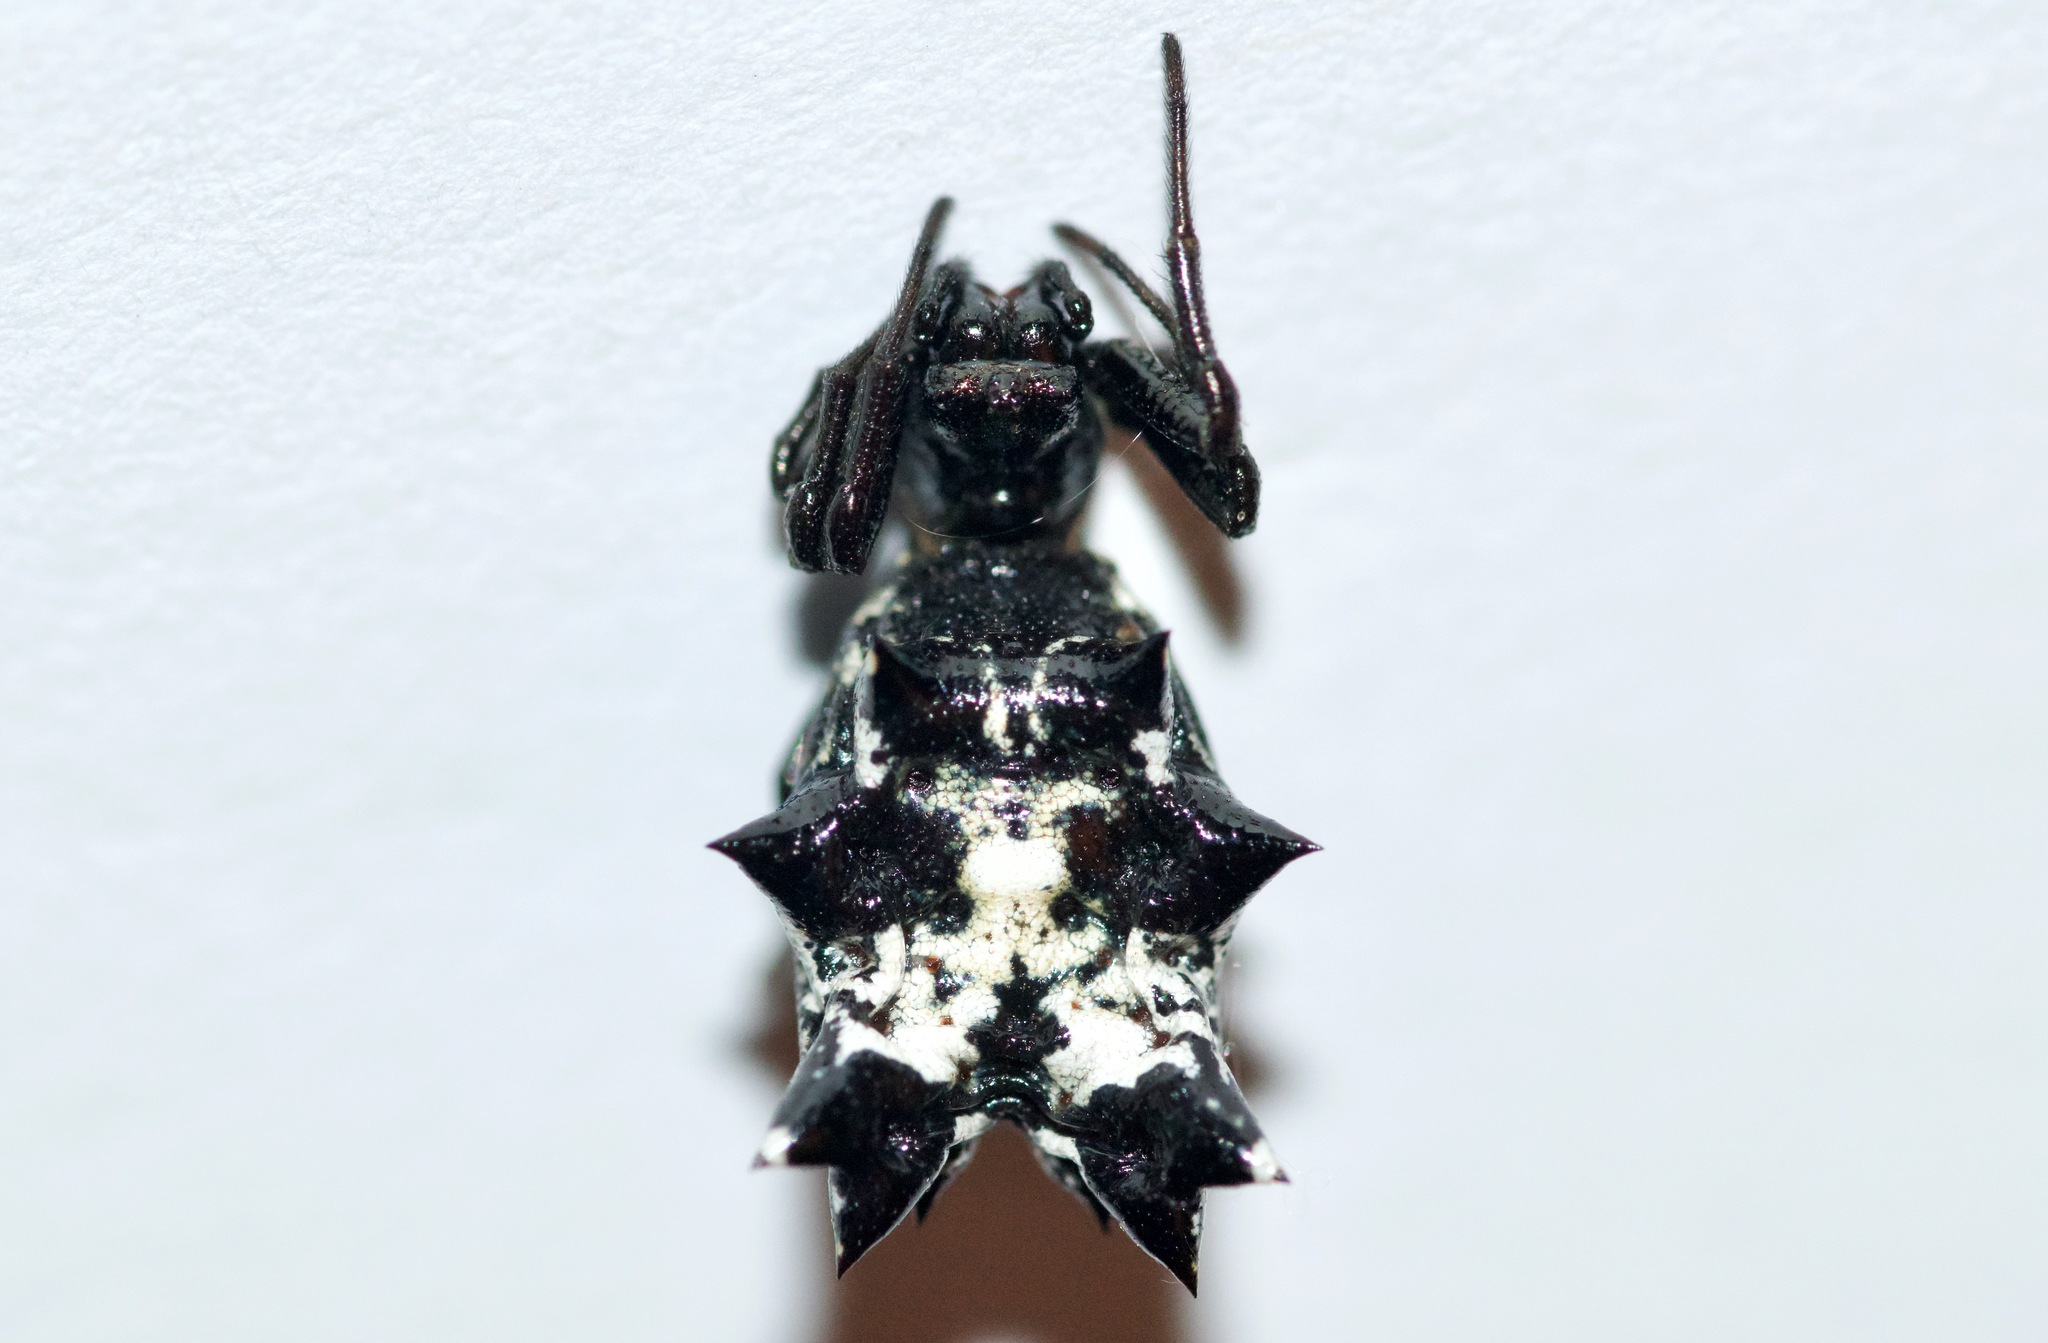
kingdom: Animalia
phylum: Arthropoda
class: Arachnida
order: Araneae
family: Araneidae
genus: Micrathena
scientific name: Micrathena gracilis
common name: Orb weavers
